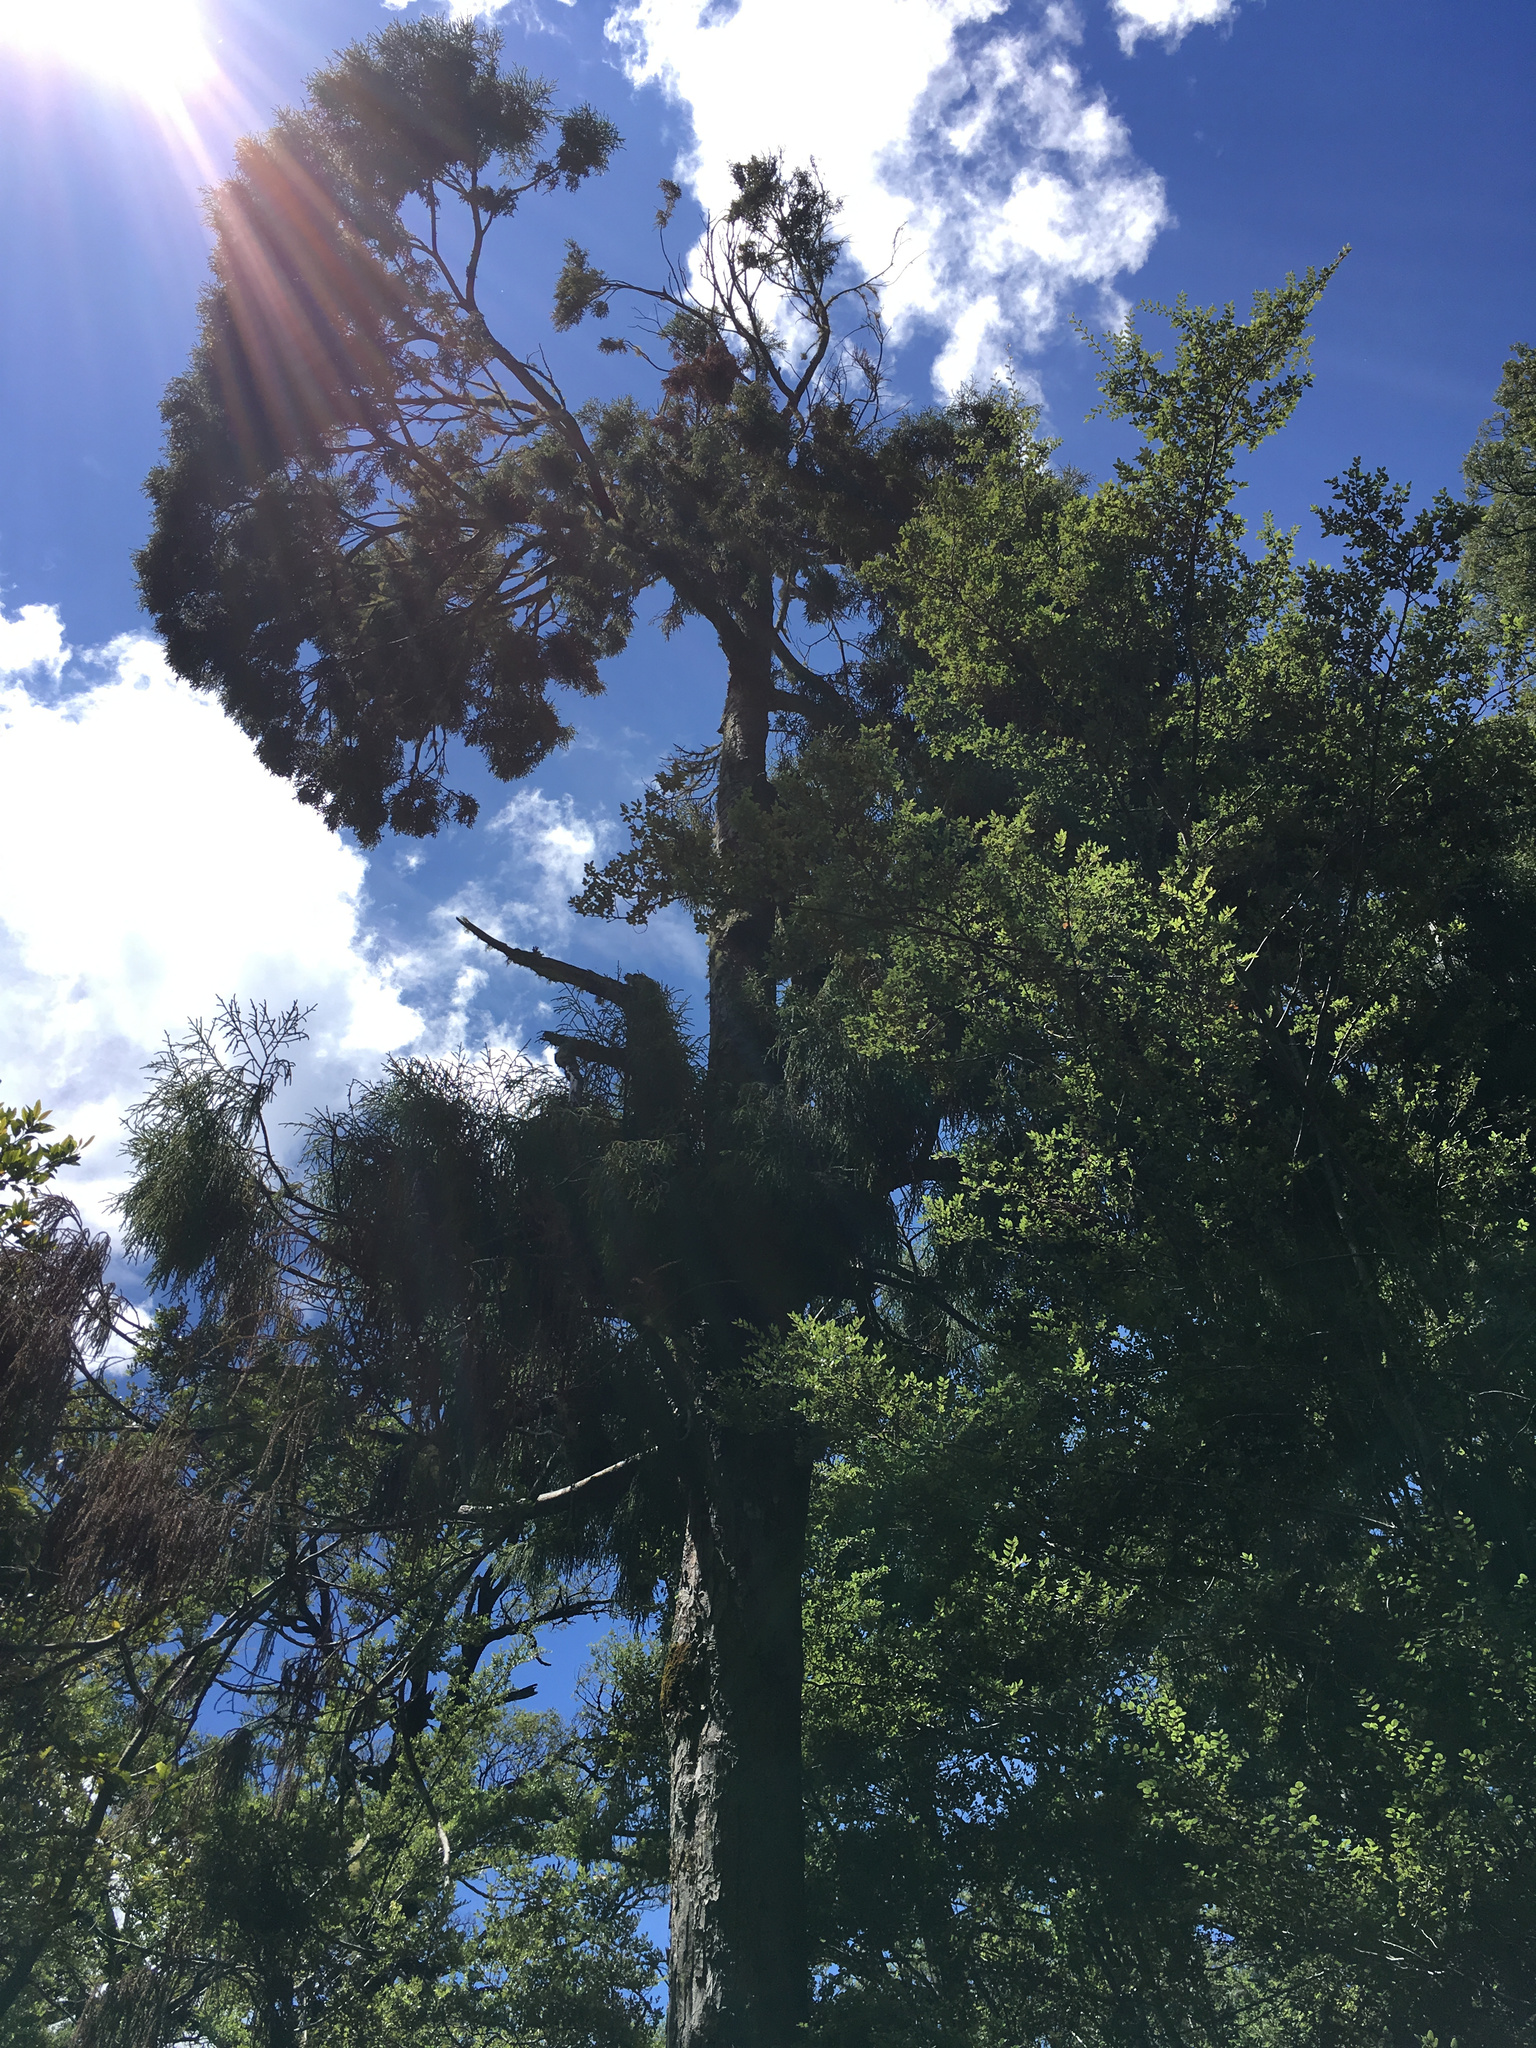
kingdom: Plantae
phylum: Tracheophyta
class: Pinopsida
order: Pinales
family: Podocarpaceae
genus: Dacrydium
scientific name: Dacrydium cupressinum
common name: Red pine
